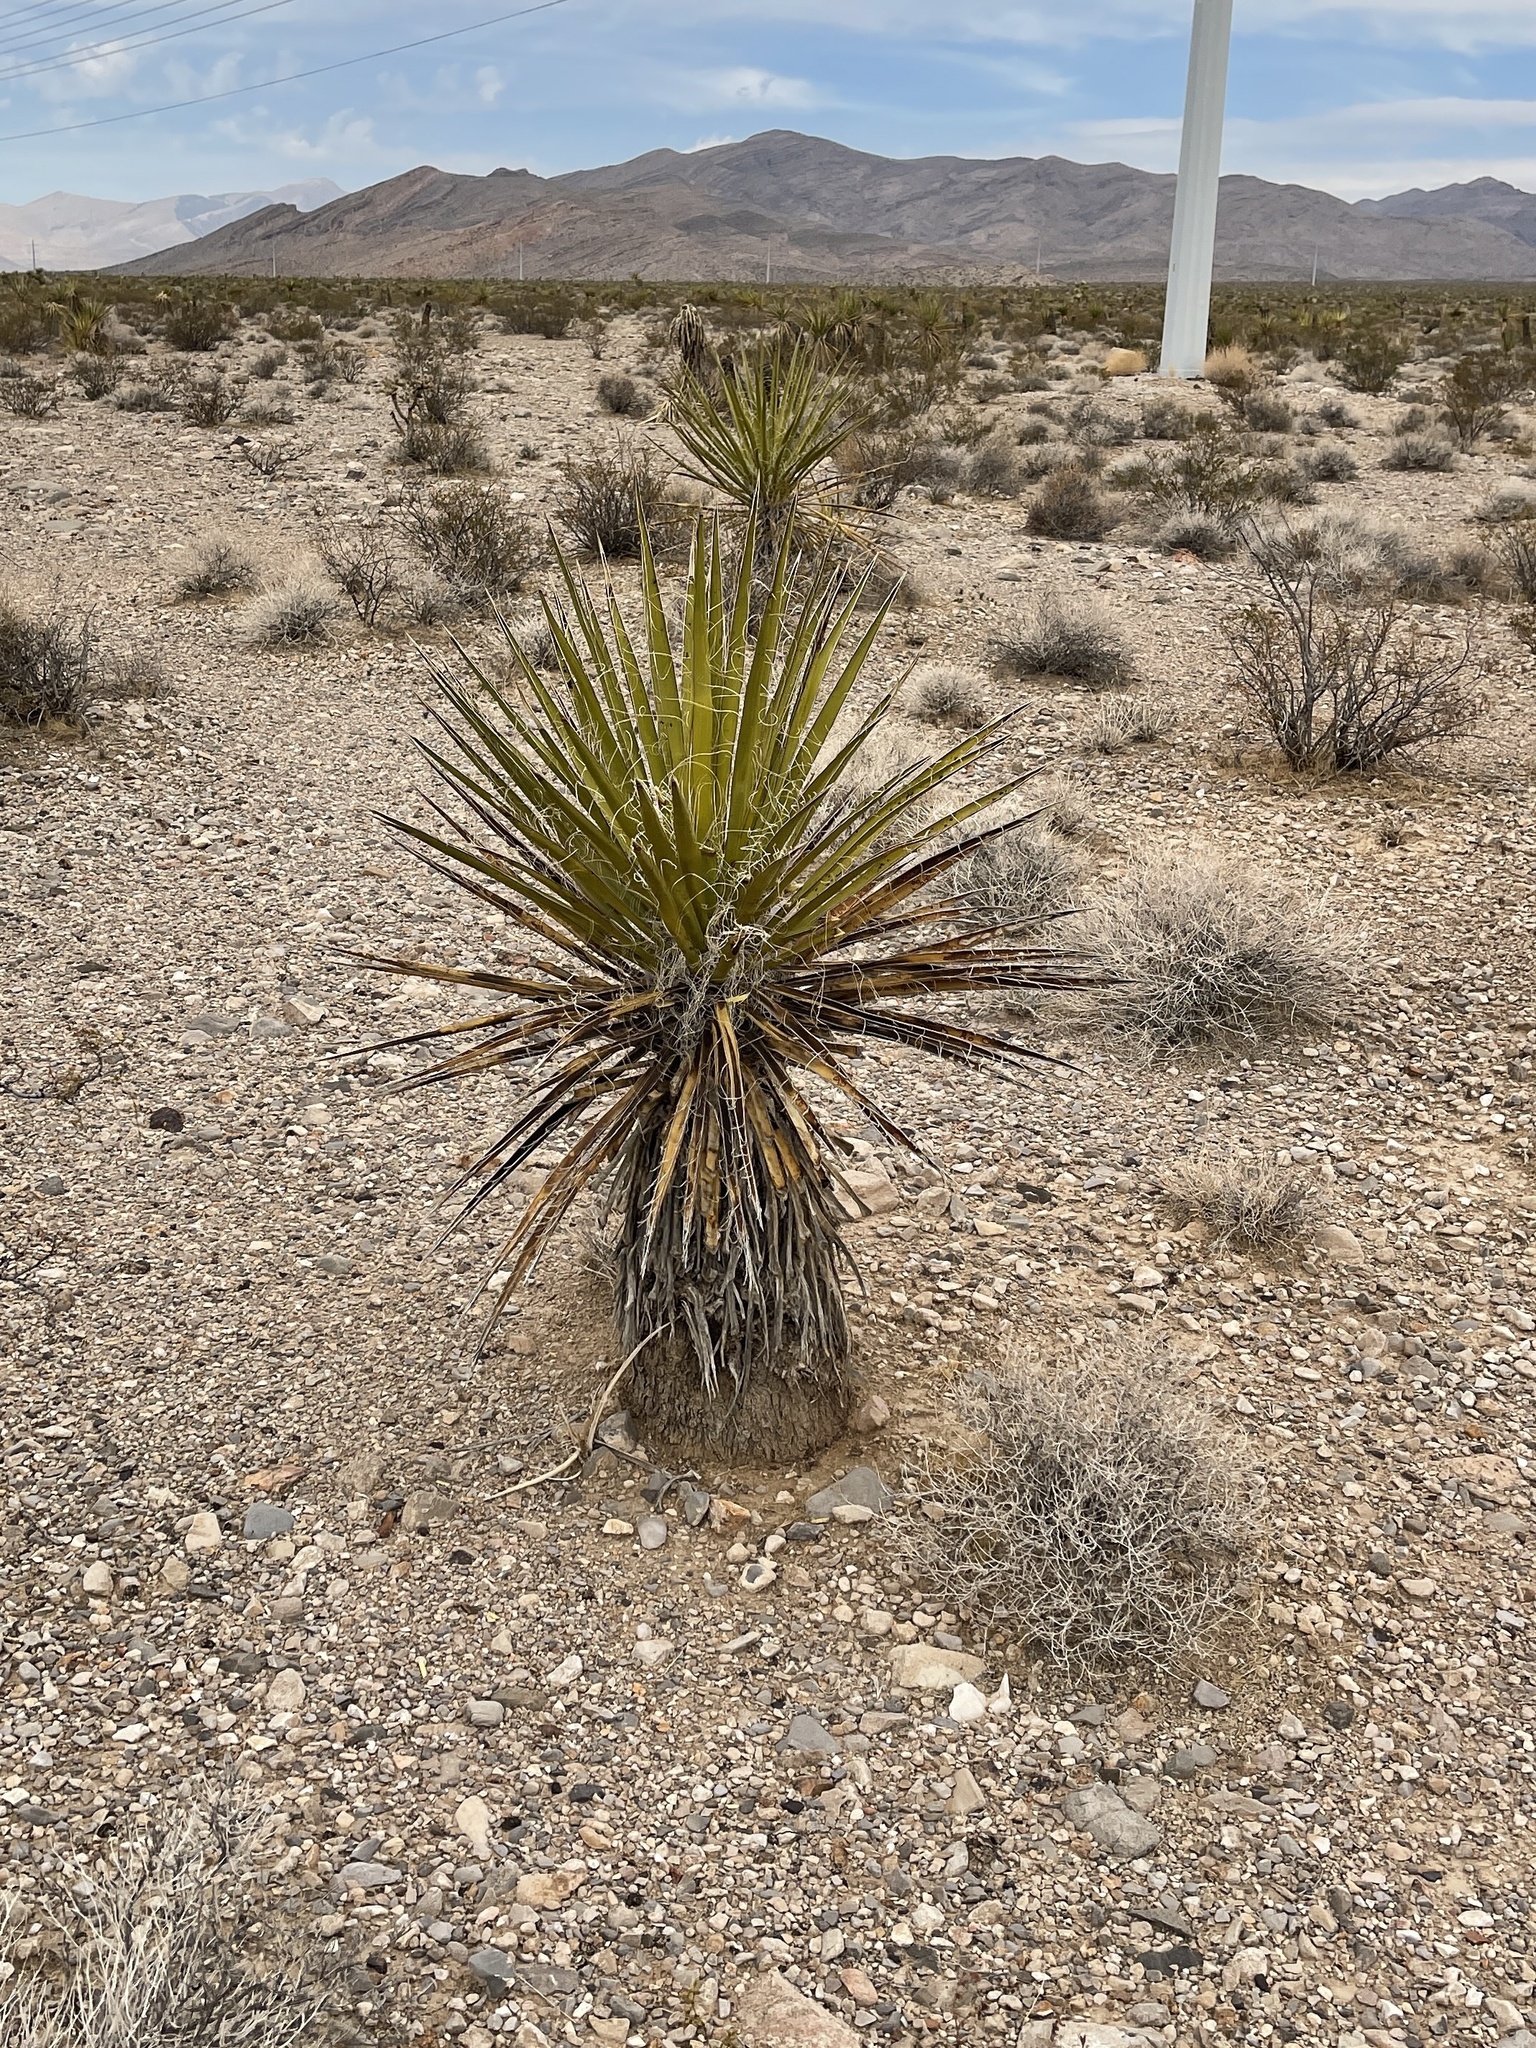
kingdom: Plantae
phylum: Tracheophyta
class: Liliopsida
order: Asparagales
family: Asparagaceae
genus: Yucca
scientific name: Yucca schidigera
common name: Mojave yucca
